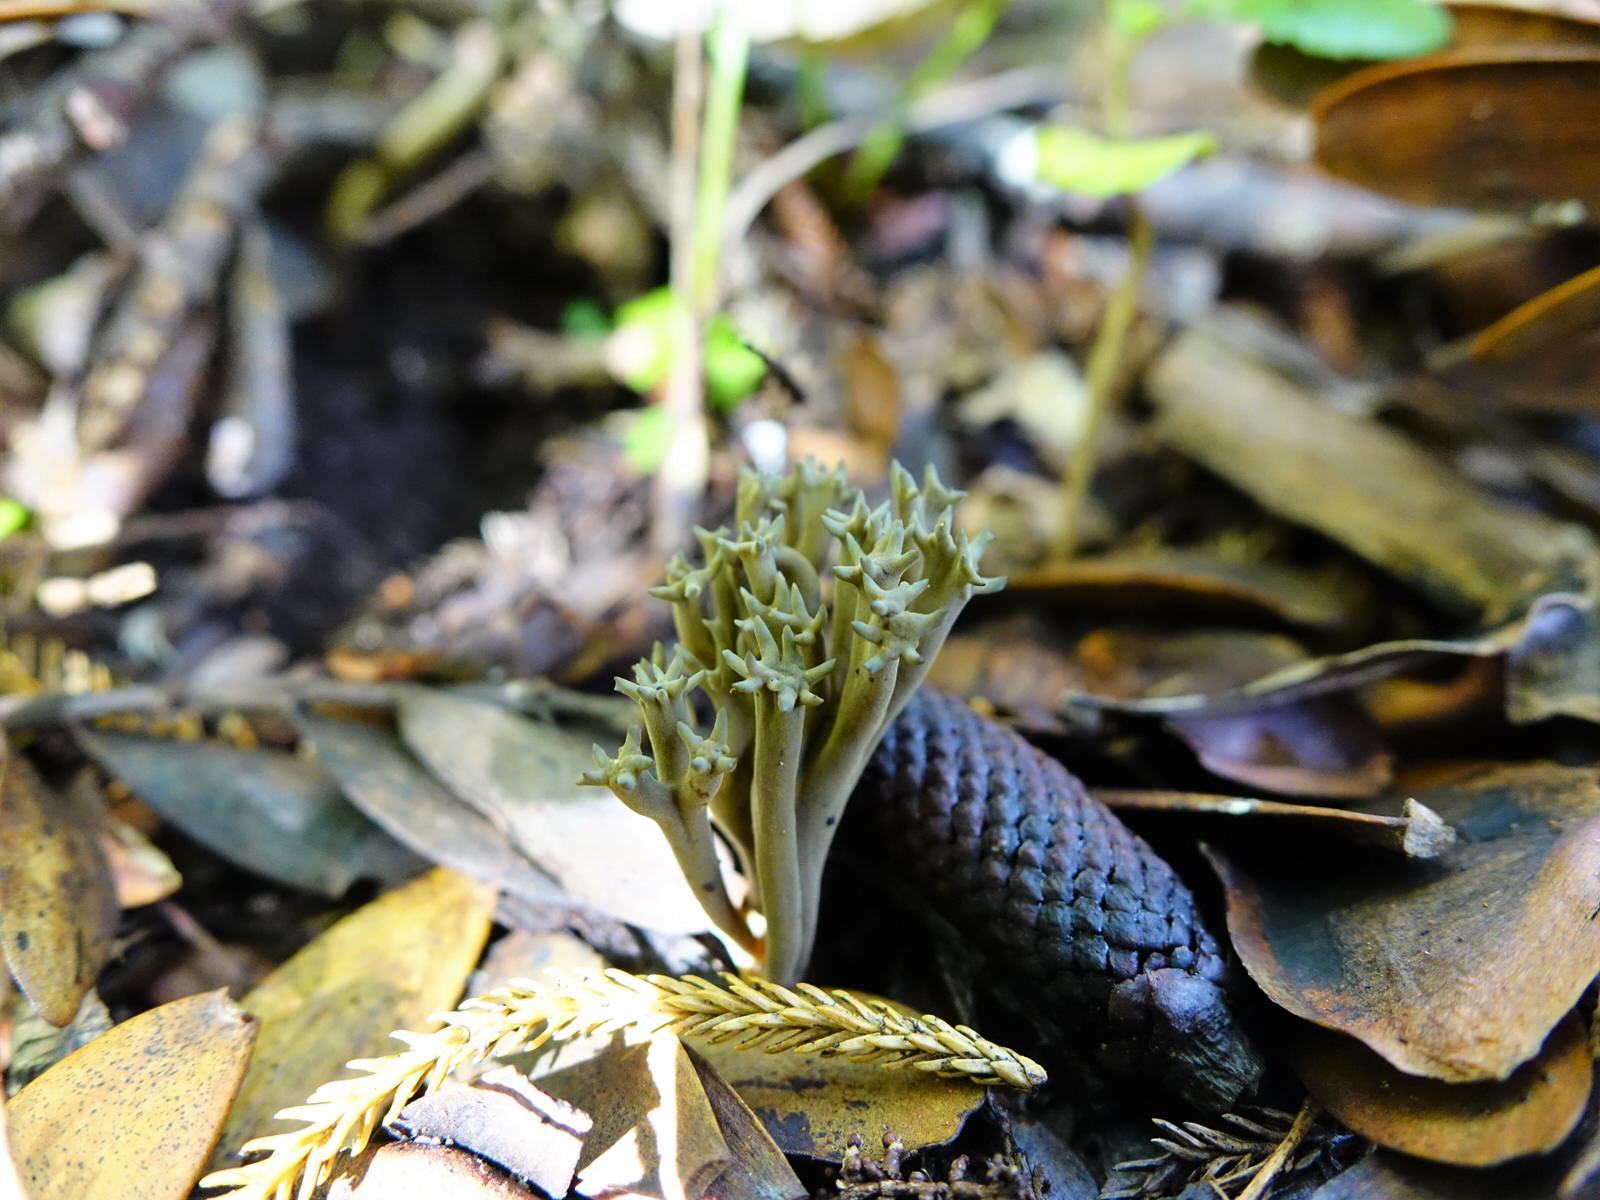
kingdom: Fungi
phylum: Basidiomycota
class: Agaricomycetes
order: Gomphales
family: Gomphaceae
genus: Phaeoclavulina
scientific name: Phaeoclavulina zippelii
